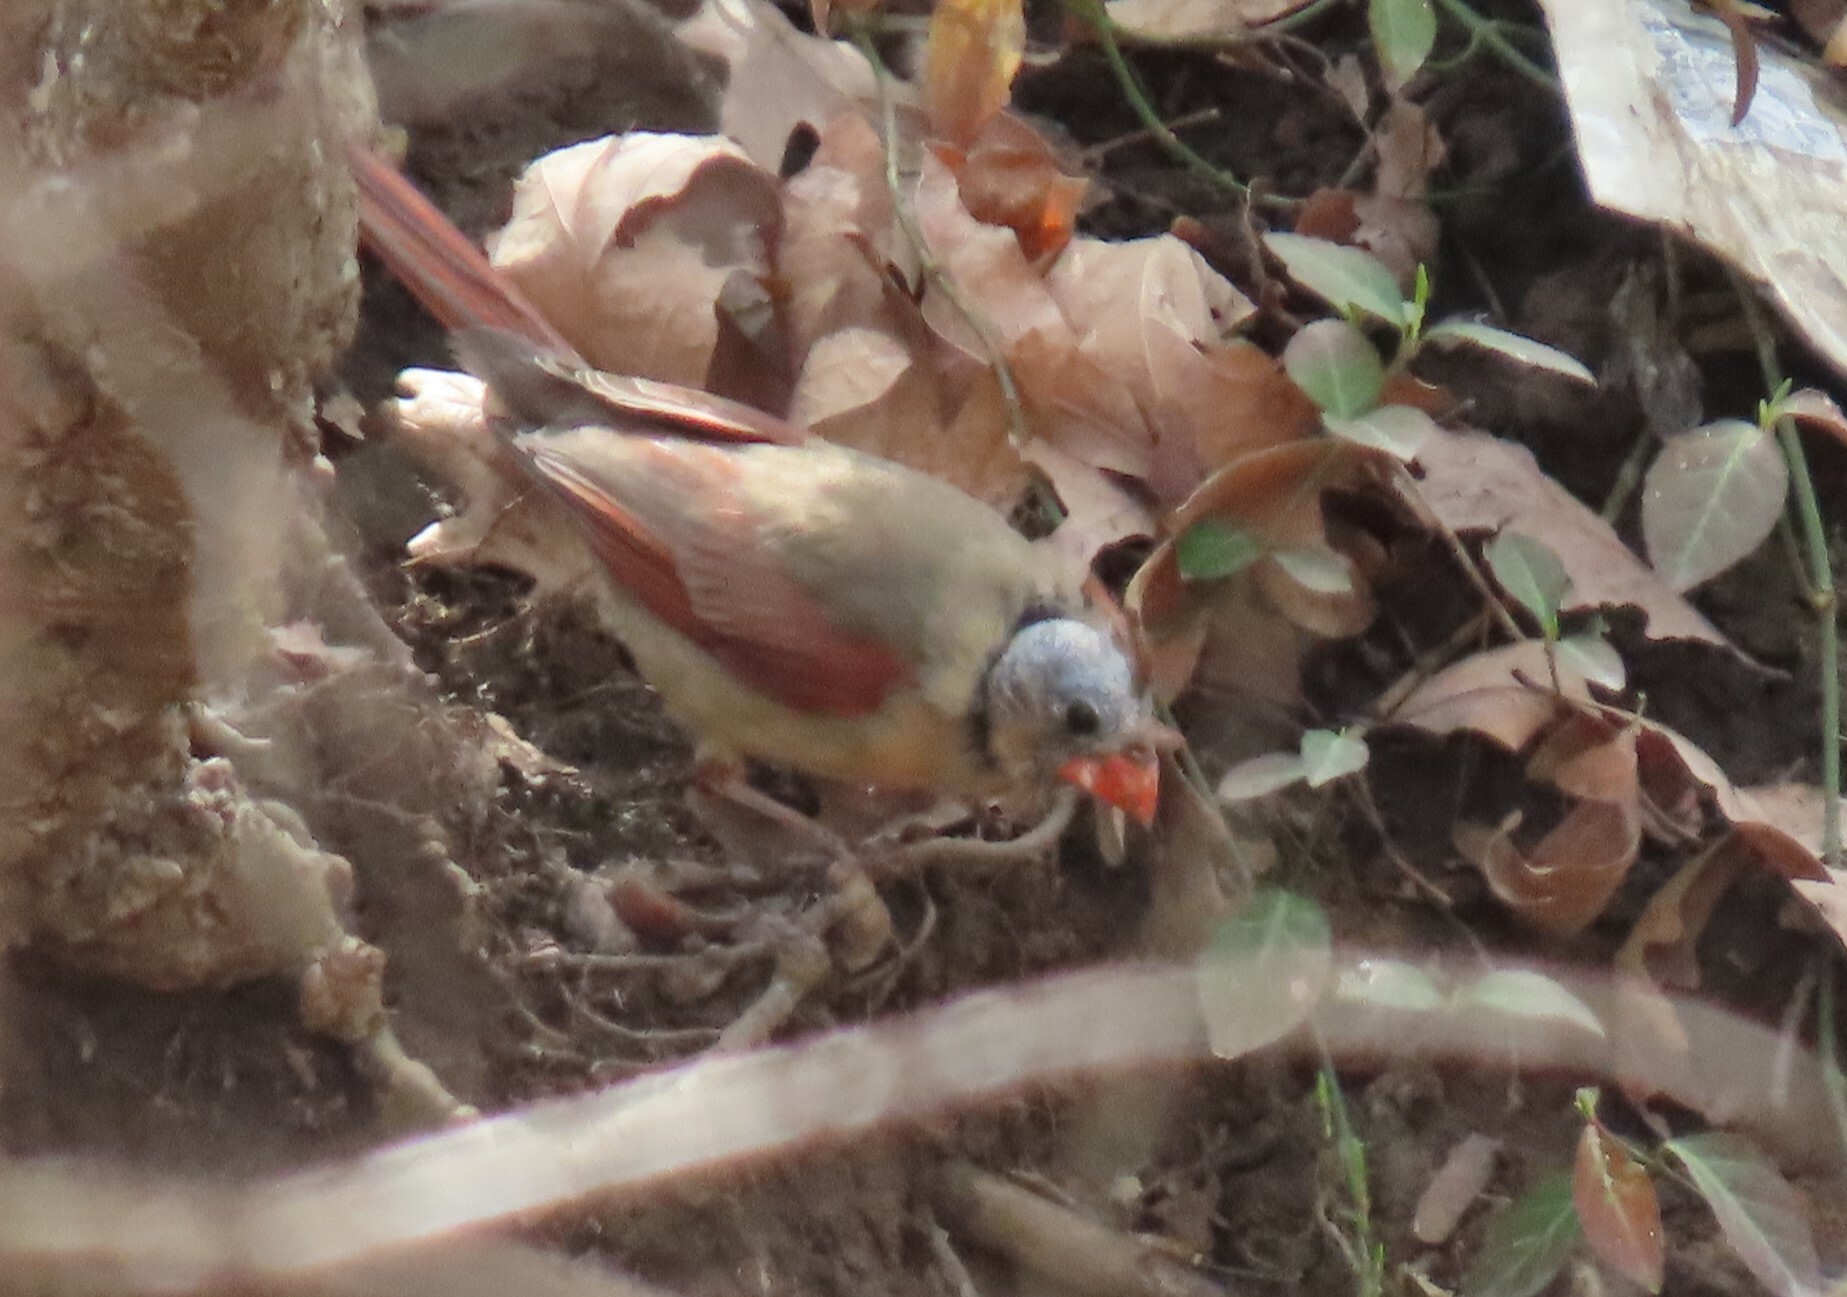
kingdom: Animalia
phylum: Chordata
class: Aves
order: Passeriformes
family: Cardinalidae
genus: Cardinalis
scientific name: Cardinalis cardinalis
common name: Northern cardinal
